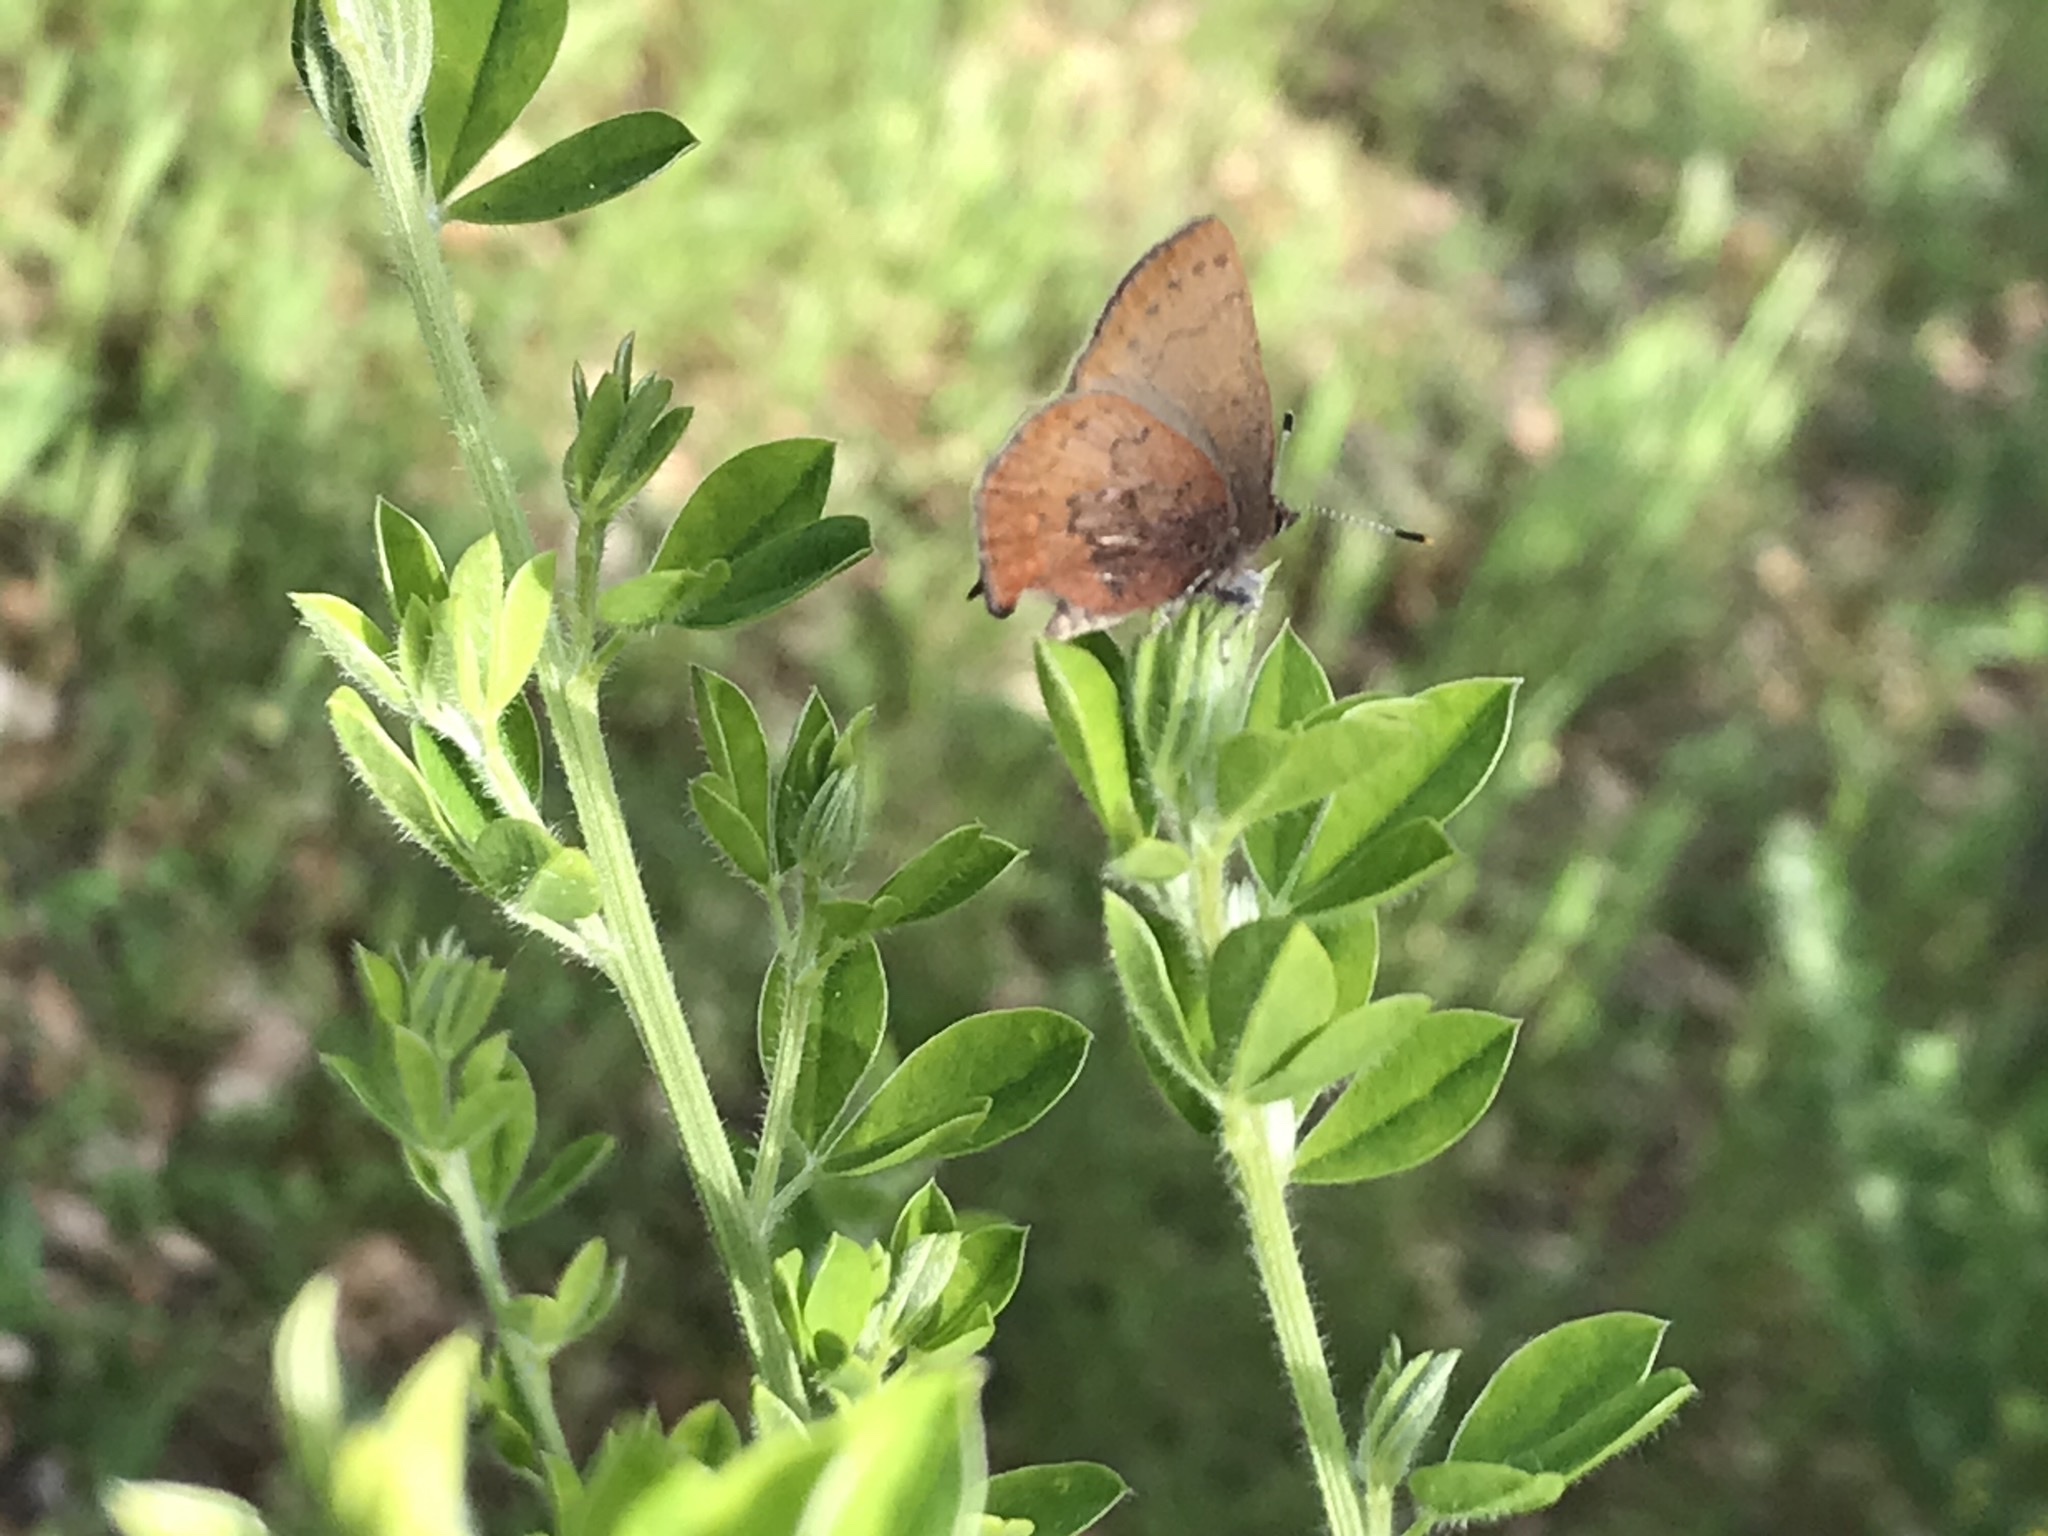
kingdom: Animalia
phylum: Arthropoda
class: Insecta
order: Lepidoptera
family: Lycaenidae
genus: Incisalia
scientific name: Incisalia irioides
